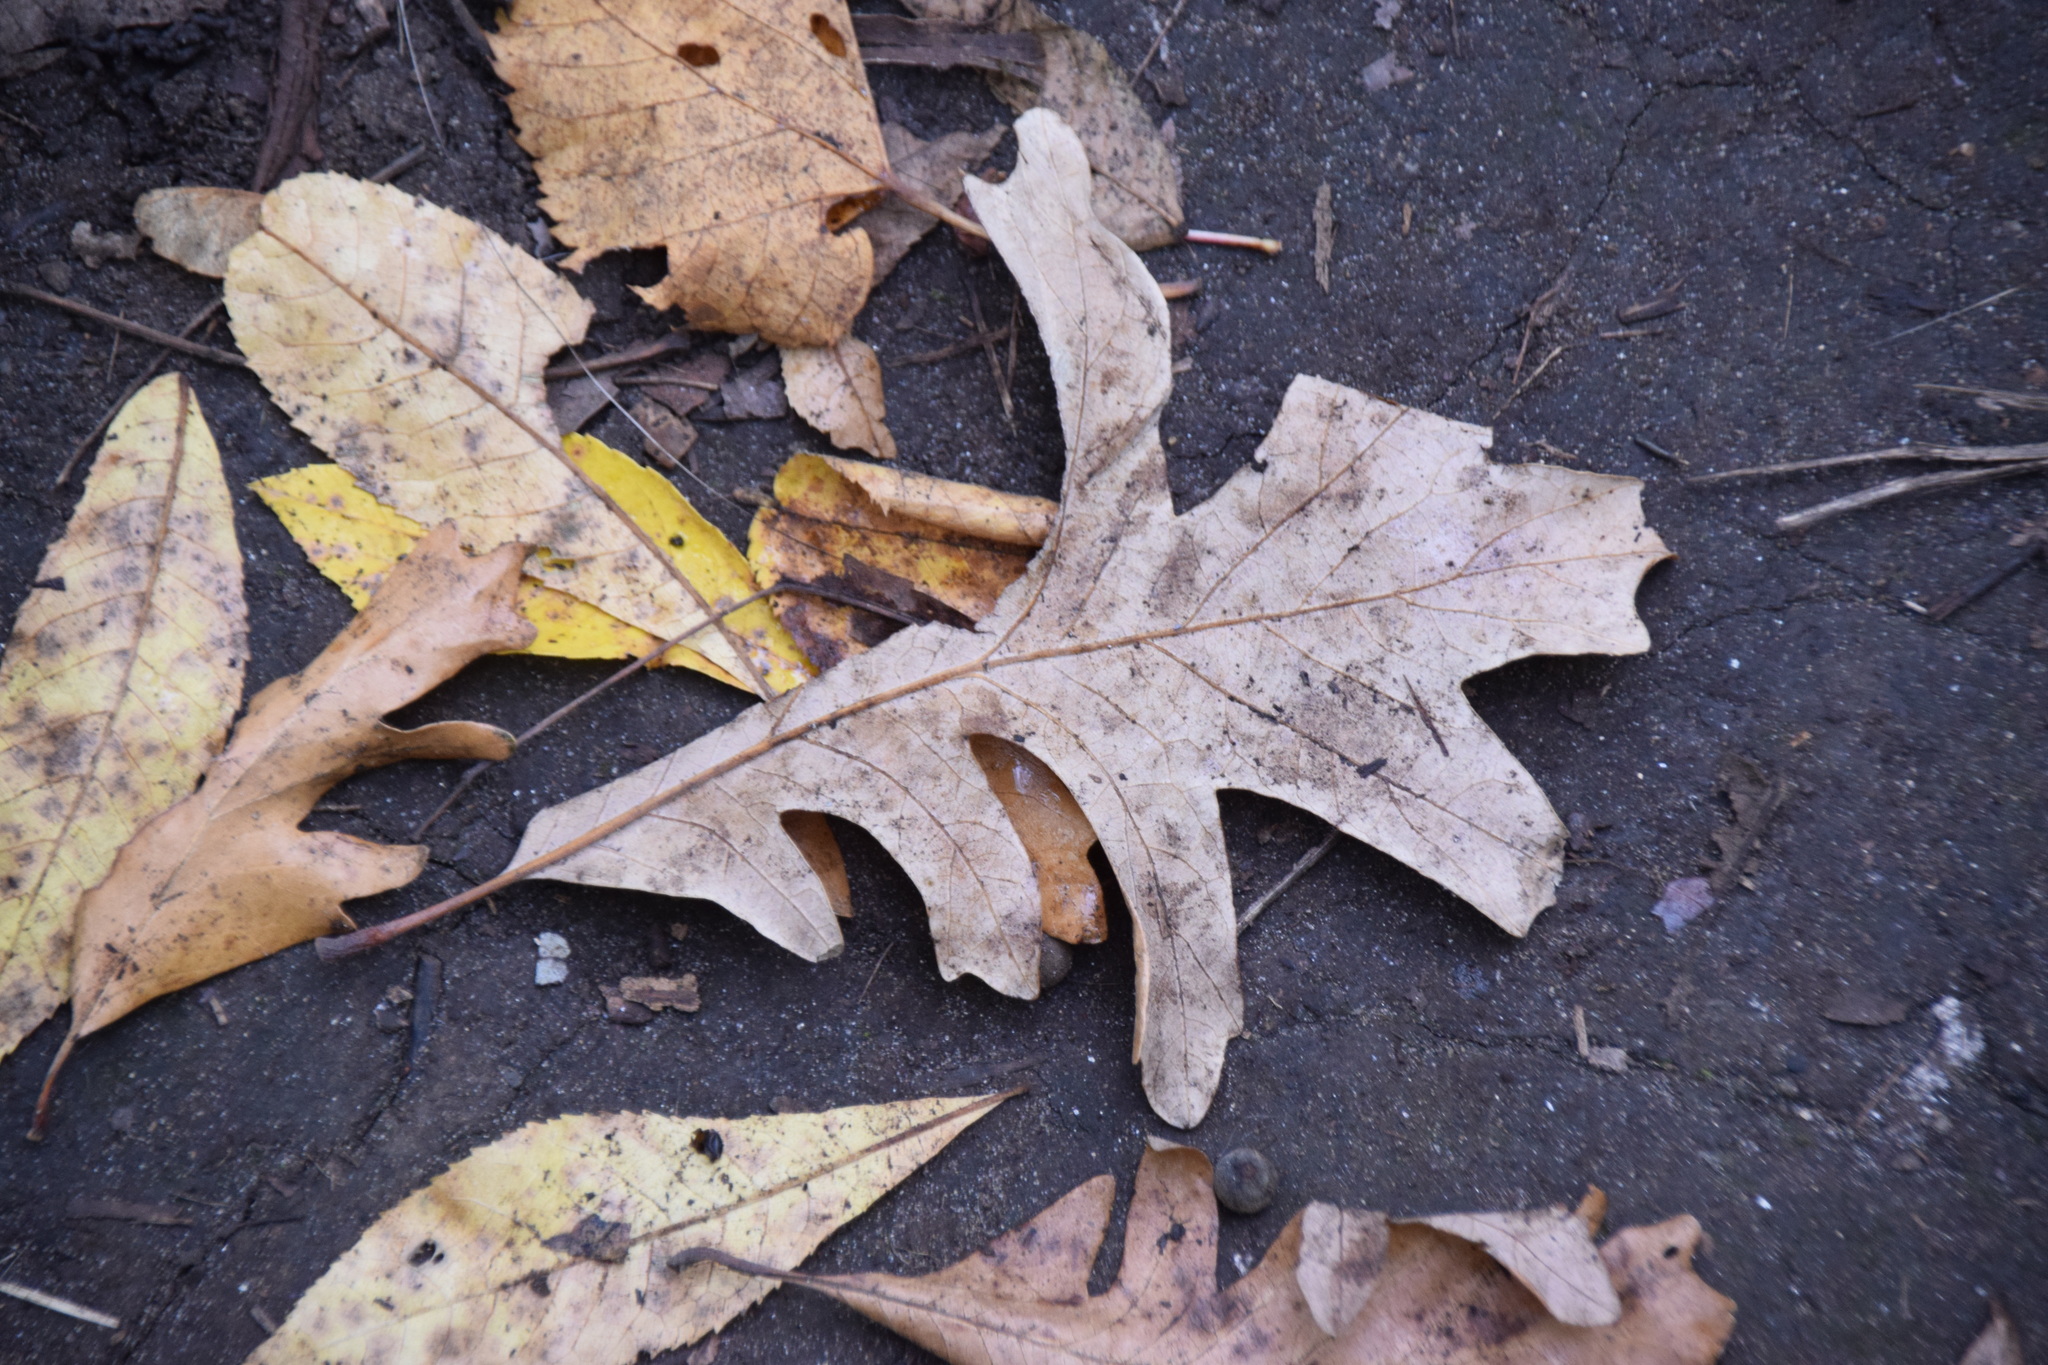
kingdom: Plantae
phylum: Tracheophyta
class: Magnoliopsida
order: Fagales
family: Fagaceae
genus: Quercus
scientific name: Quercus macrocarpa
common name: Bur oak
